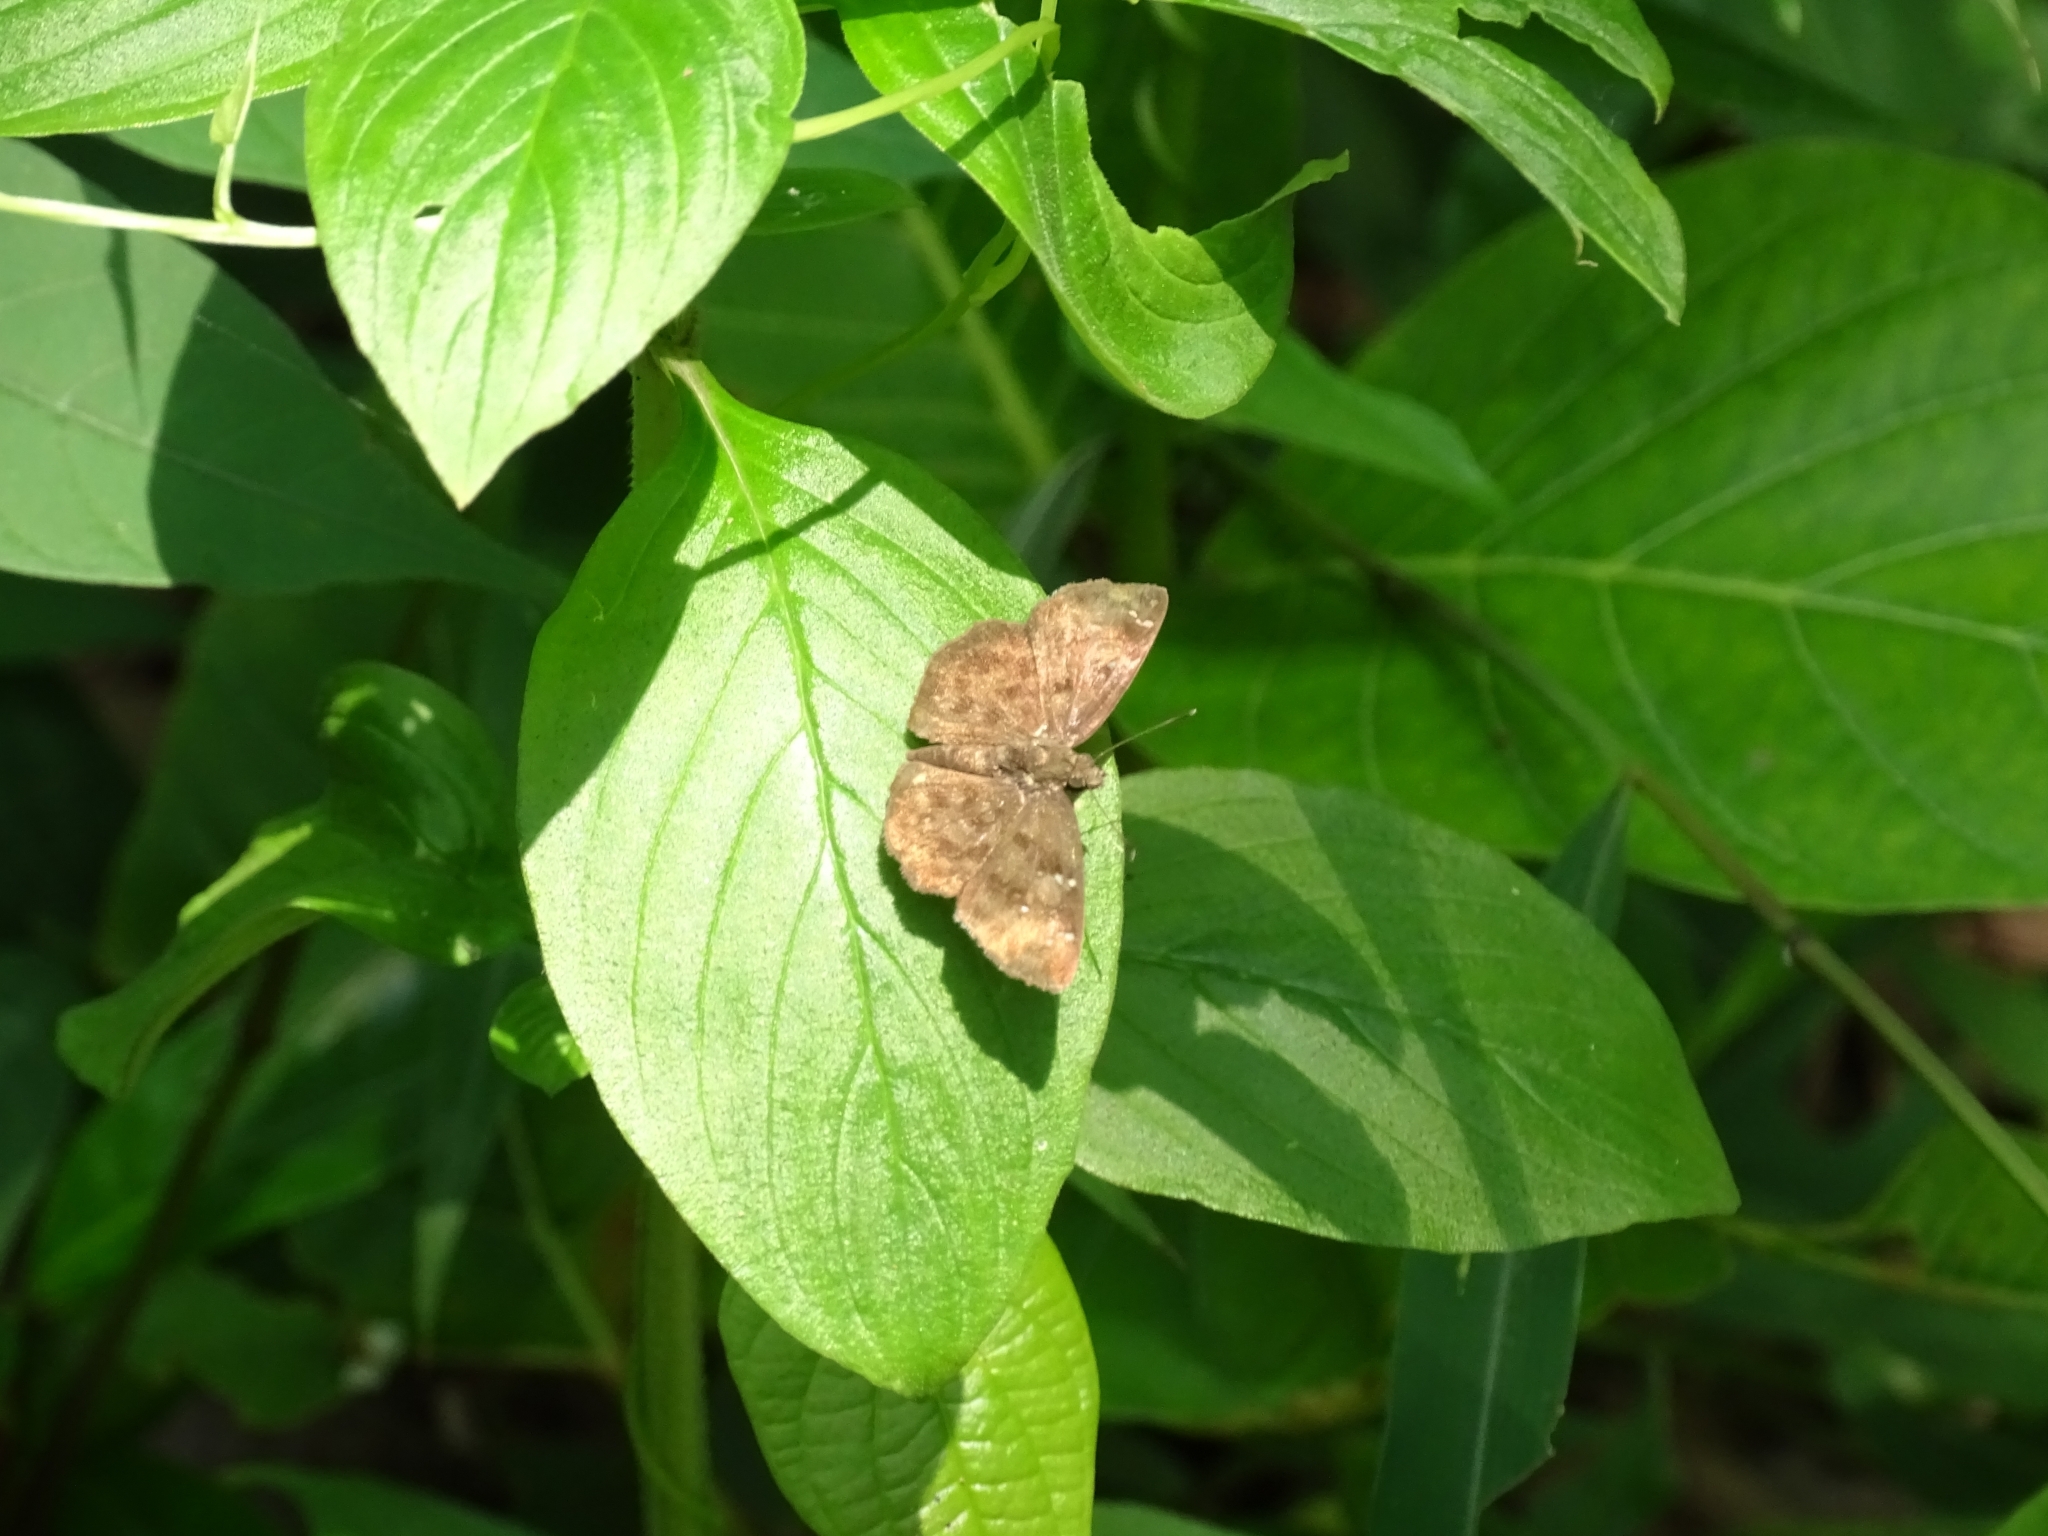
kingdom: Animalia
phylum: Arthropoda
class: Insecta
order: Lepidoptera
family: Hesperiidae
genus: Sarangesa
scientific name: Sarangesa dasahara
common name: Common small flat
